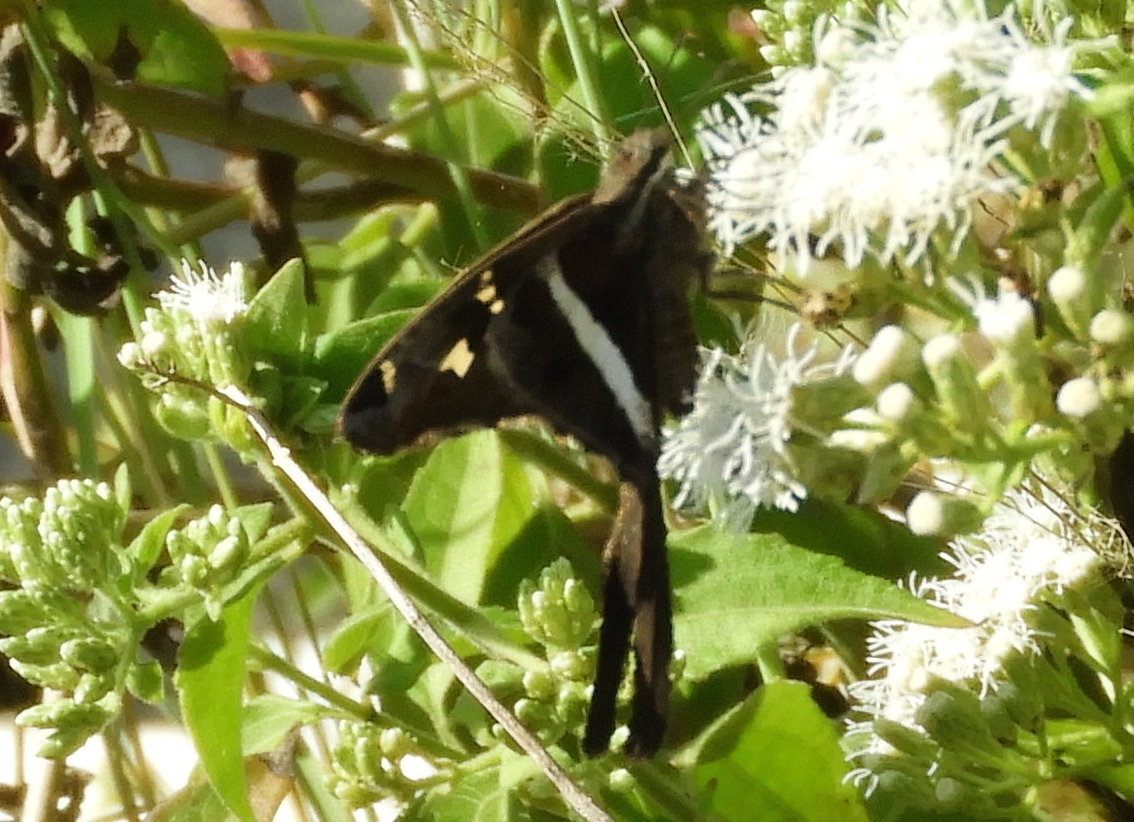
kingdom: Animalia
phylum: Arthropoda
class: Insecta
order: Lepidoptera
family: Hesperiidae
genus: Chioides
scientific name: Chioides catillus
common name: Silverbanded skipper
